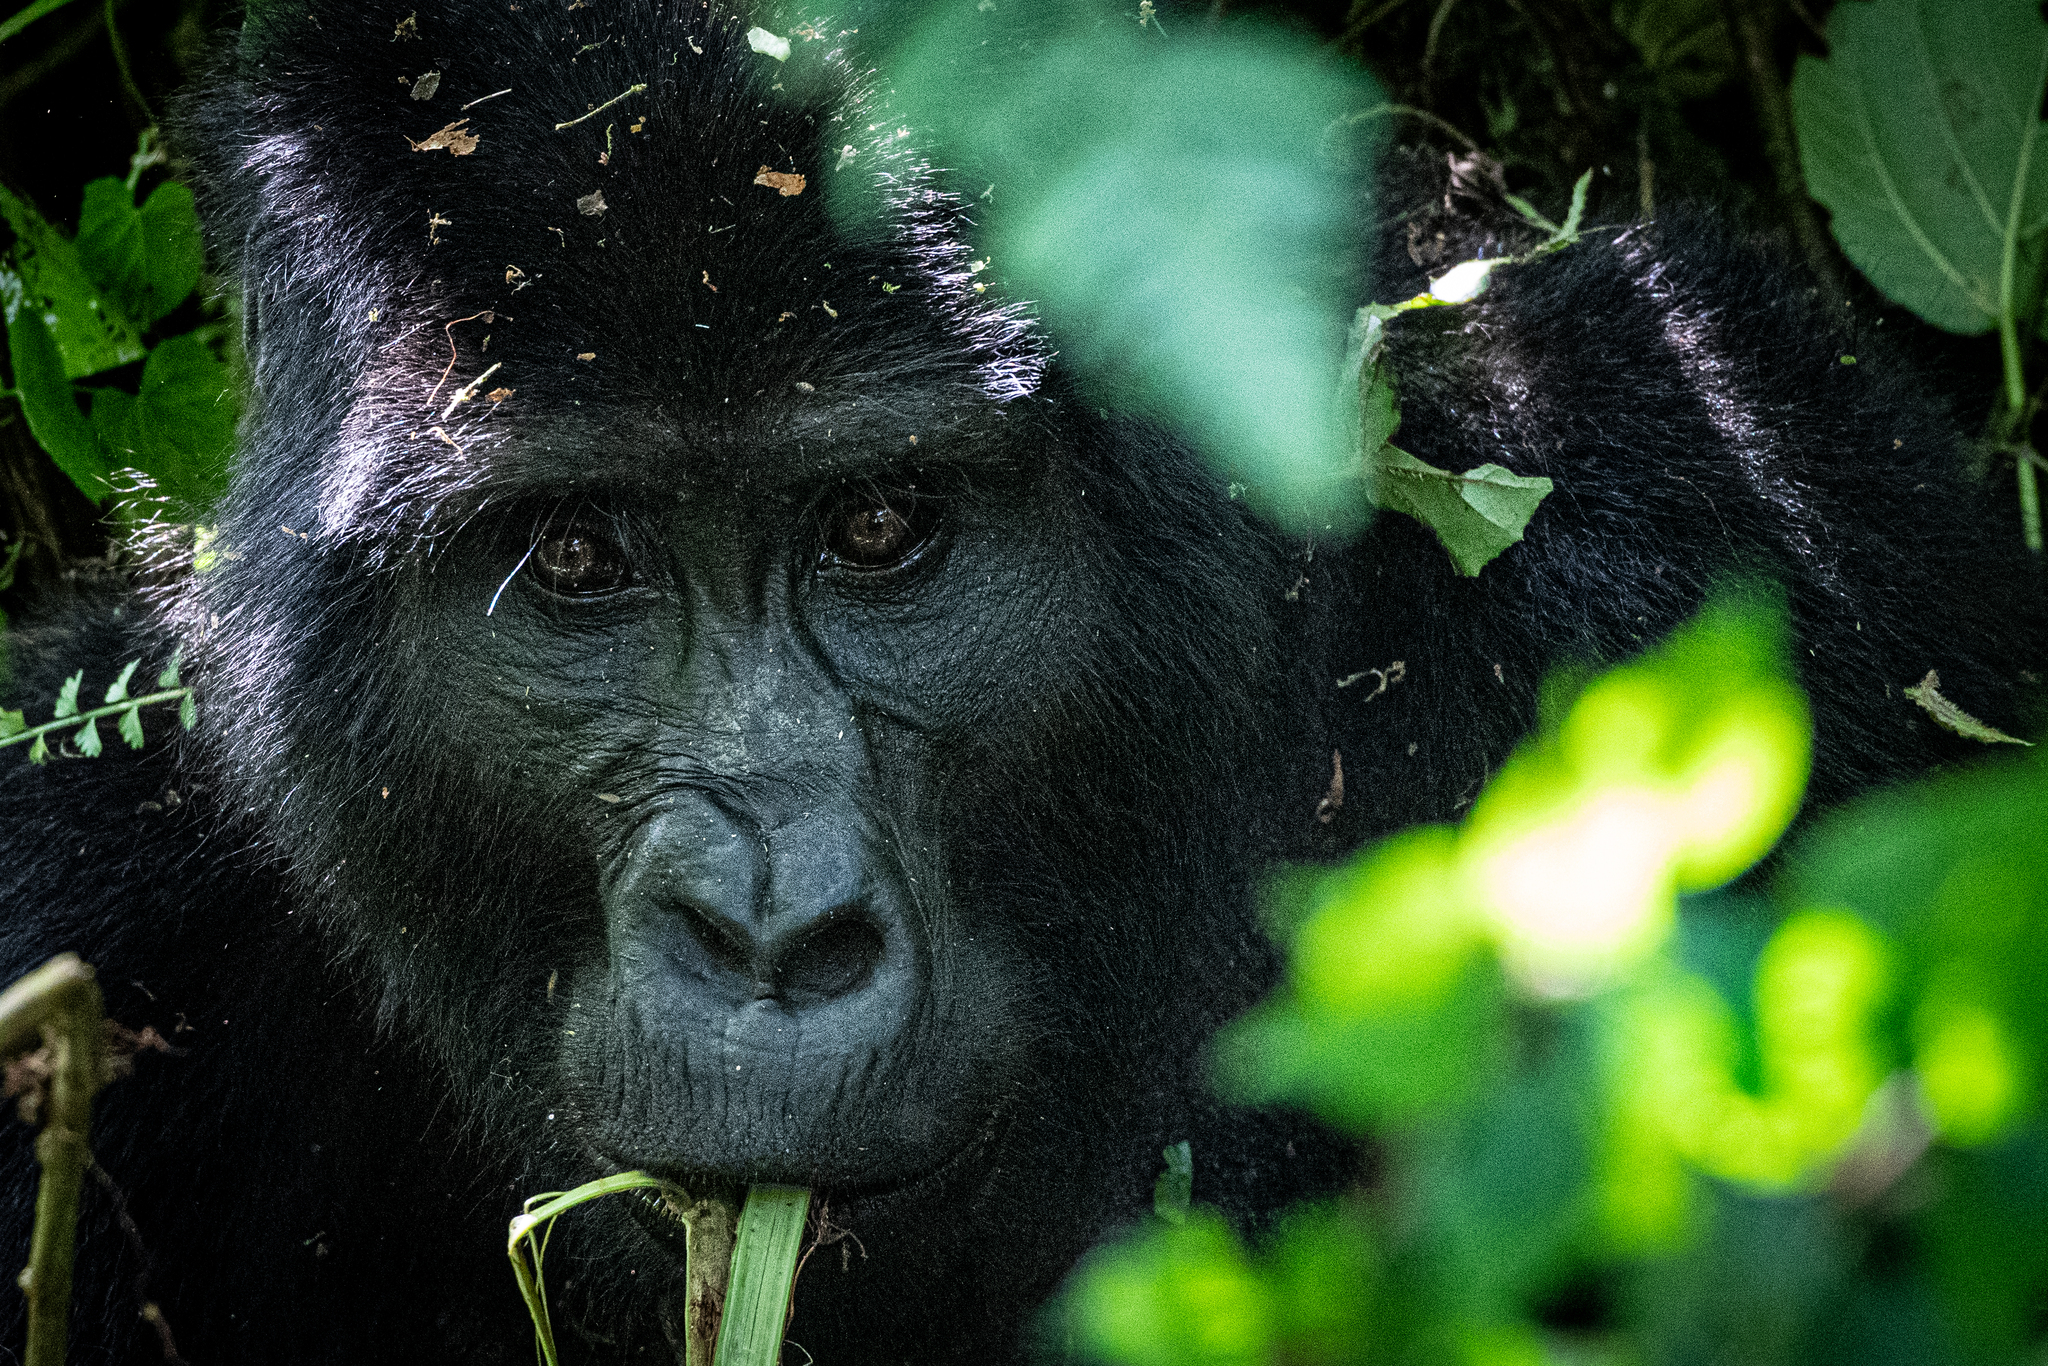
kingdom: Animalia
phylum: Chordata
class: Mammalia
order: Primates
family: Hominidae
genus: Gorilla
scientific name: Gorilla beringei
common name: Eastern gorilla
